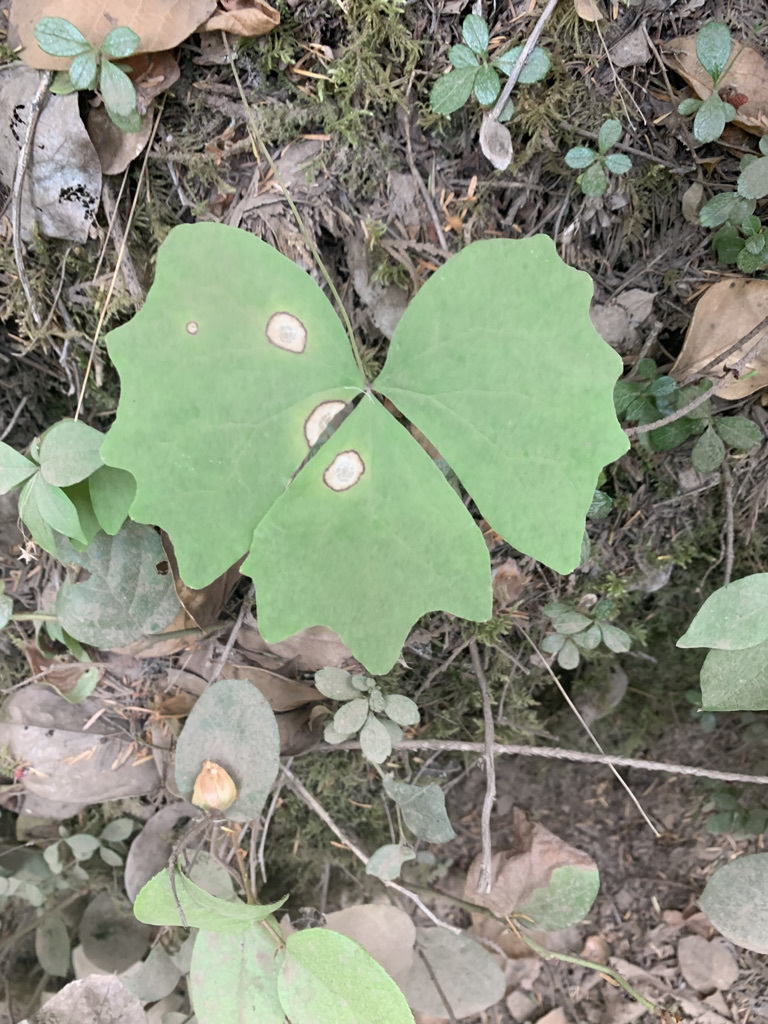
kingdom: Plantae
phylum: Tracheophyta
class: Magnoliopsida
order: Ranunculales
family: Berberidaceae
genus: Achlys
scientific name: Achlys triphylla
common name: Vanilla-leaf
